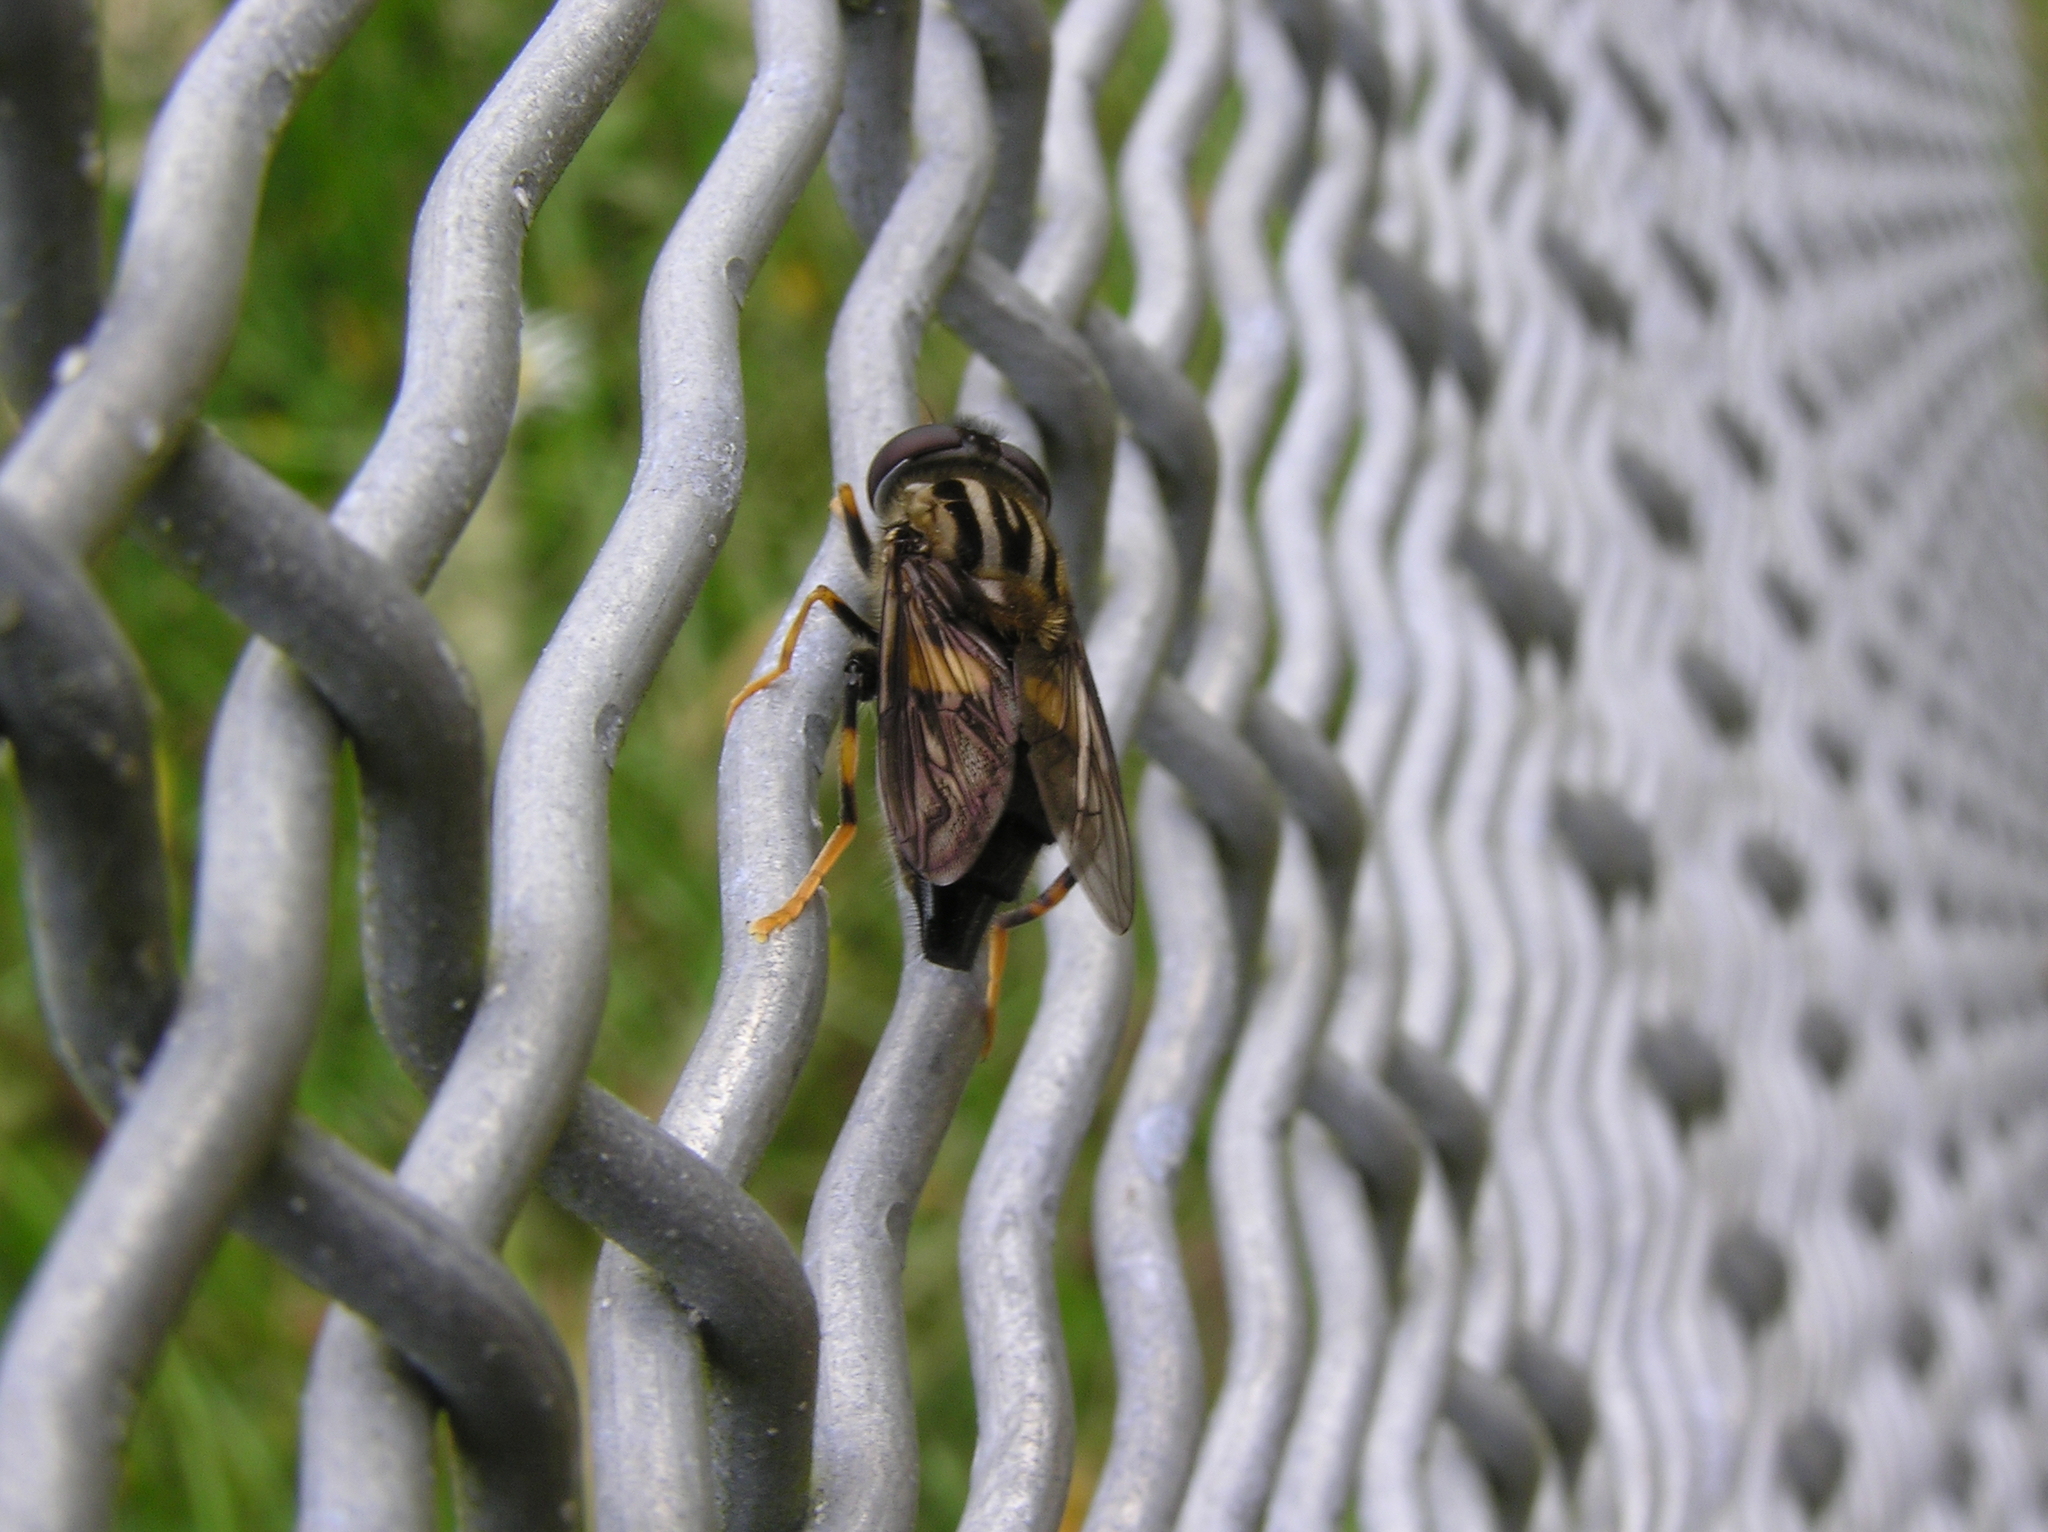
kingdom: Animalia
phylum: Arthropoda
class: Insecta
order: Diptera
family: Syrphidae
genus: Helophilus
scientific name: Helophilus antipodus
